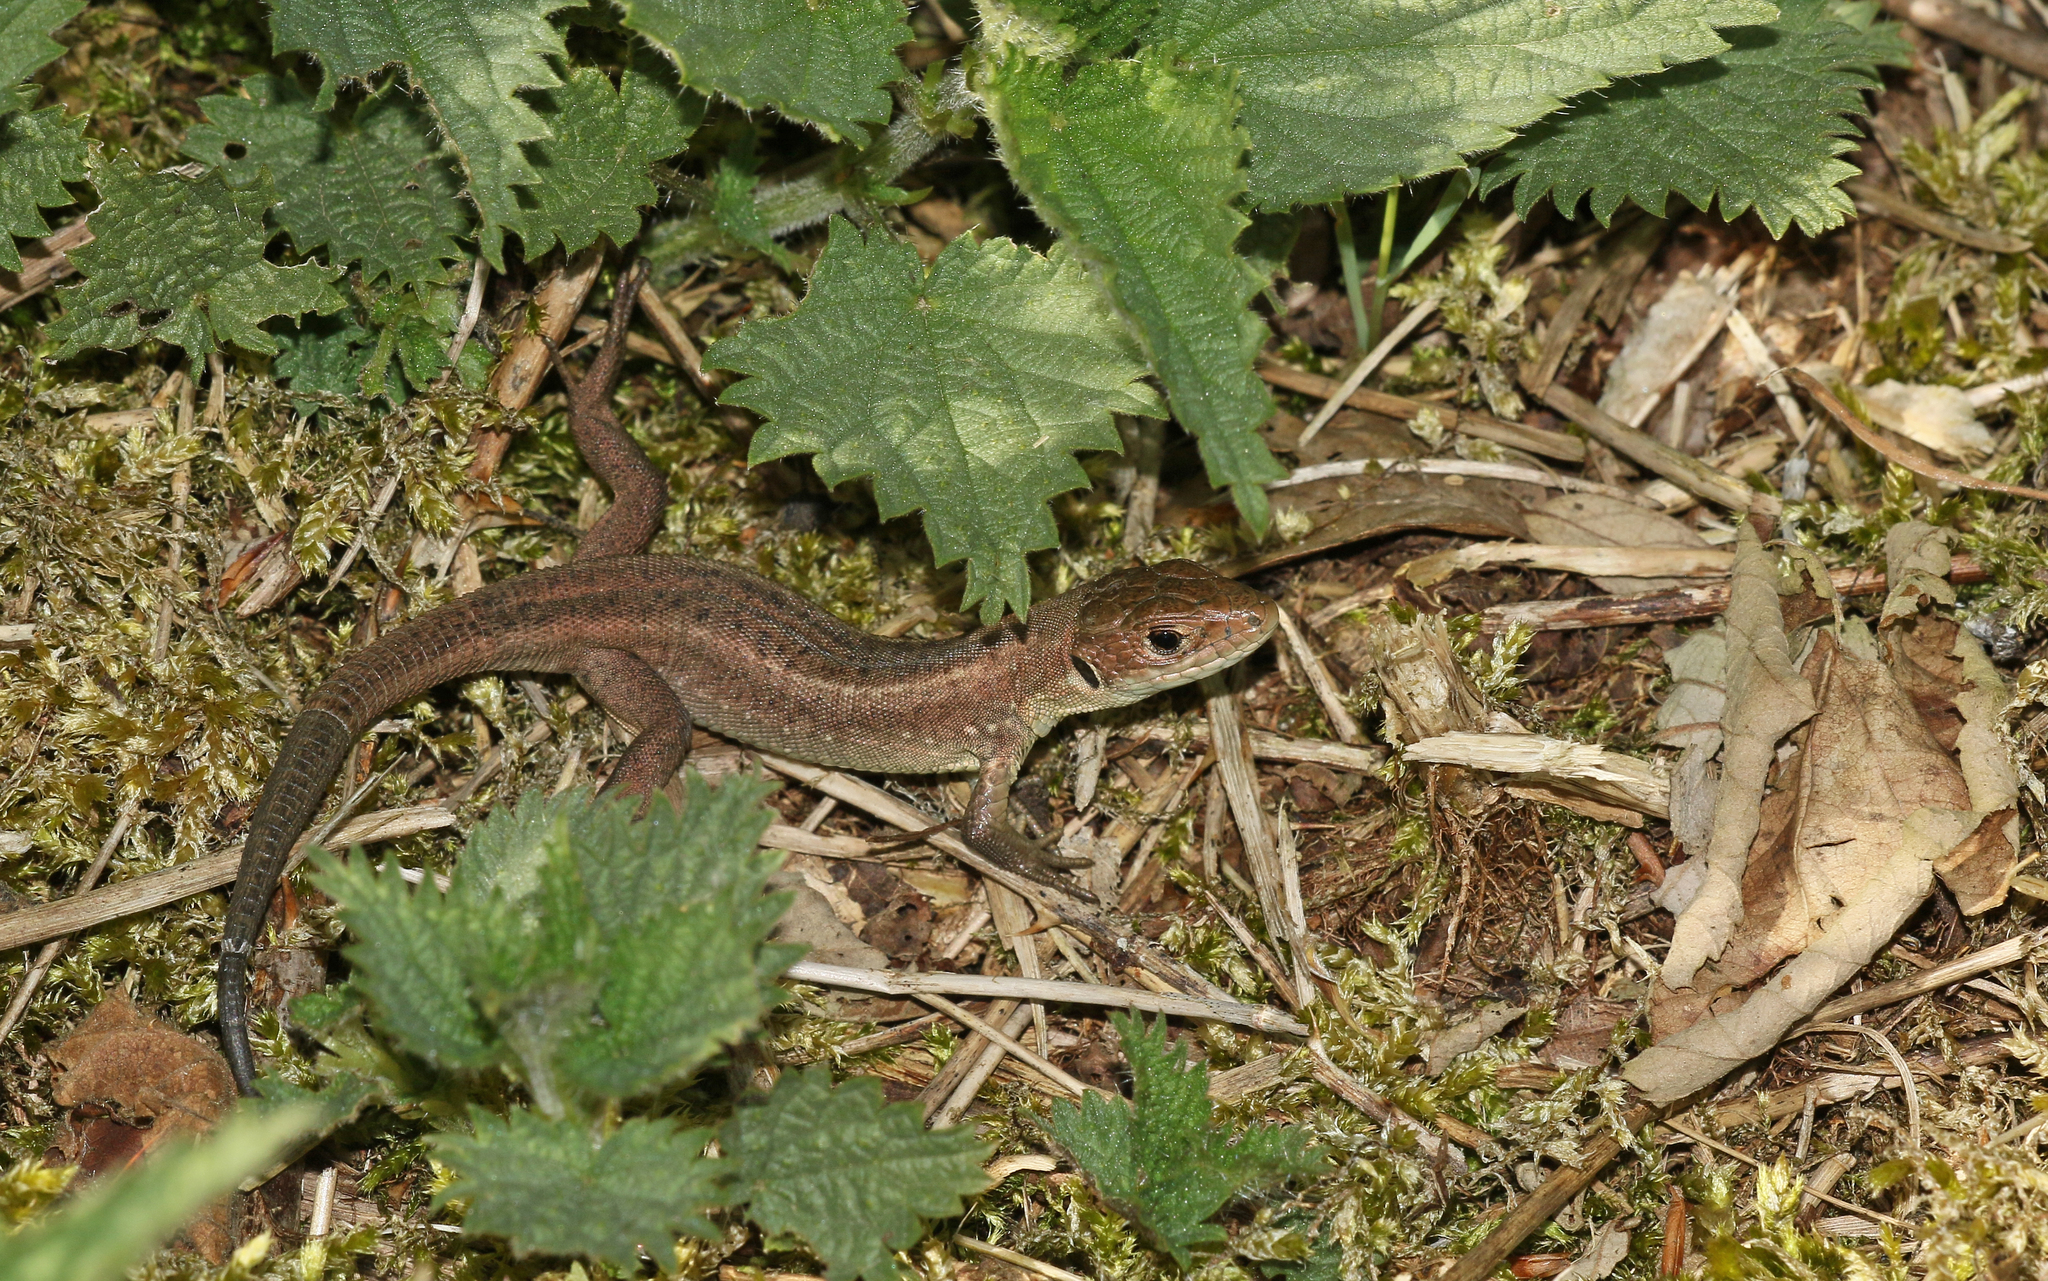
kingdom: Animalia
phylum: Chordata
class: Squamata
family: Lacertidae
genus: Lacerta
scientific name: Lacerta viridis
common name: European green lizard
